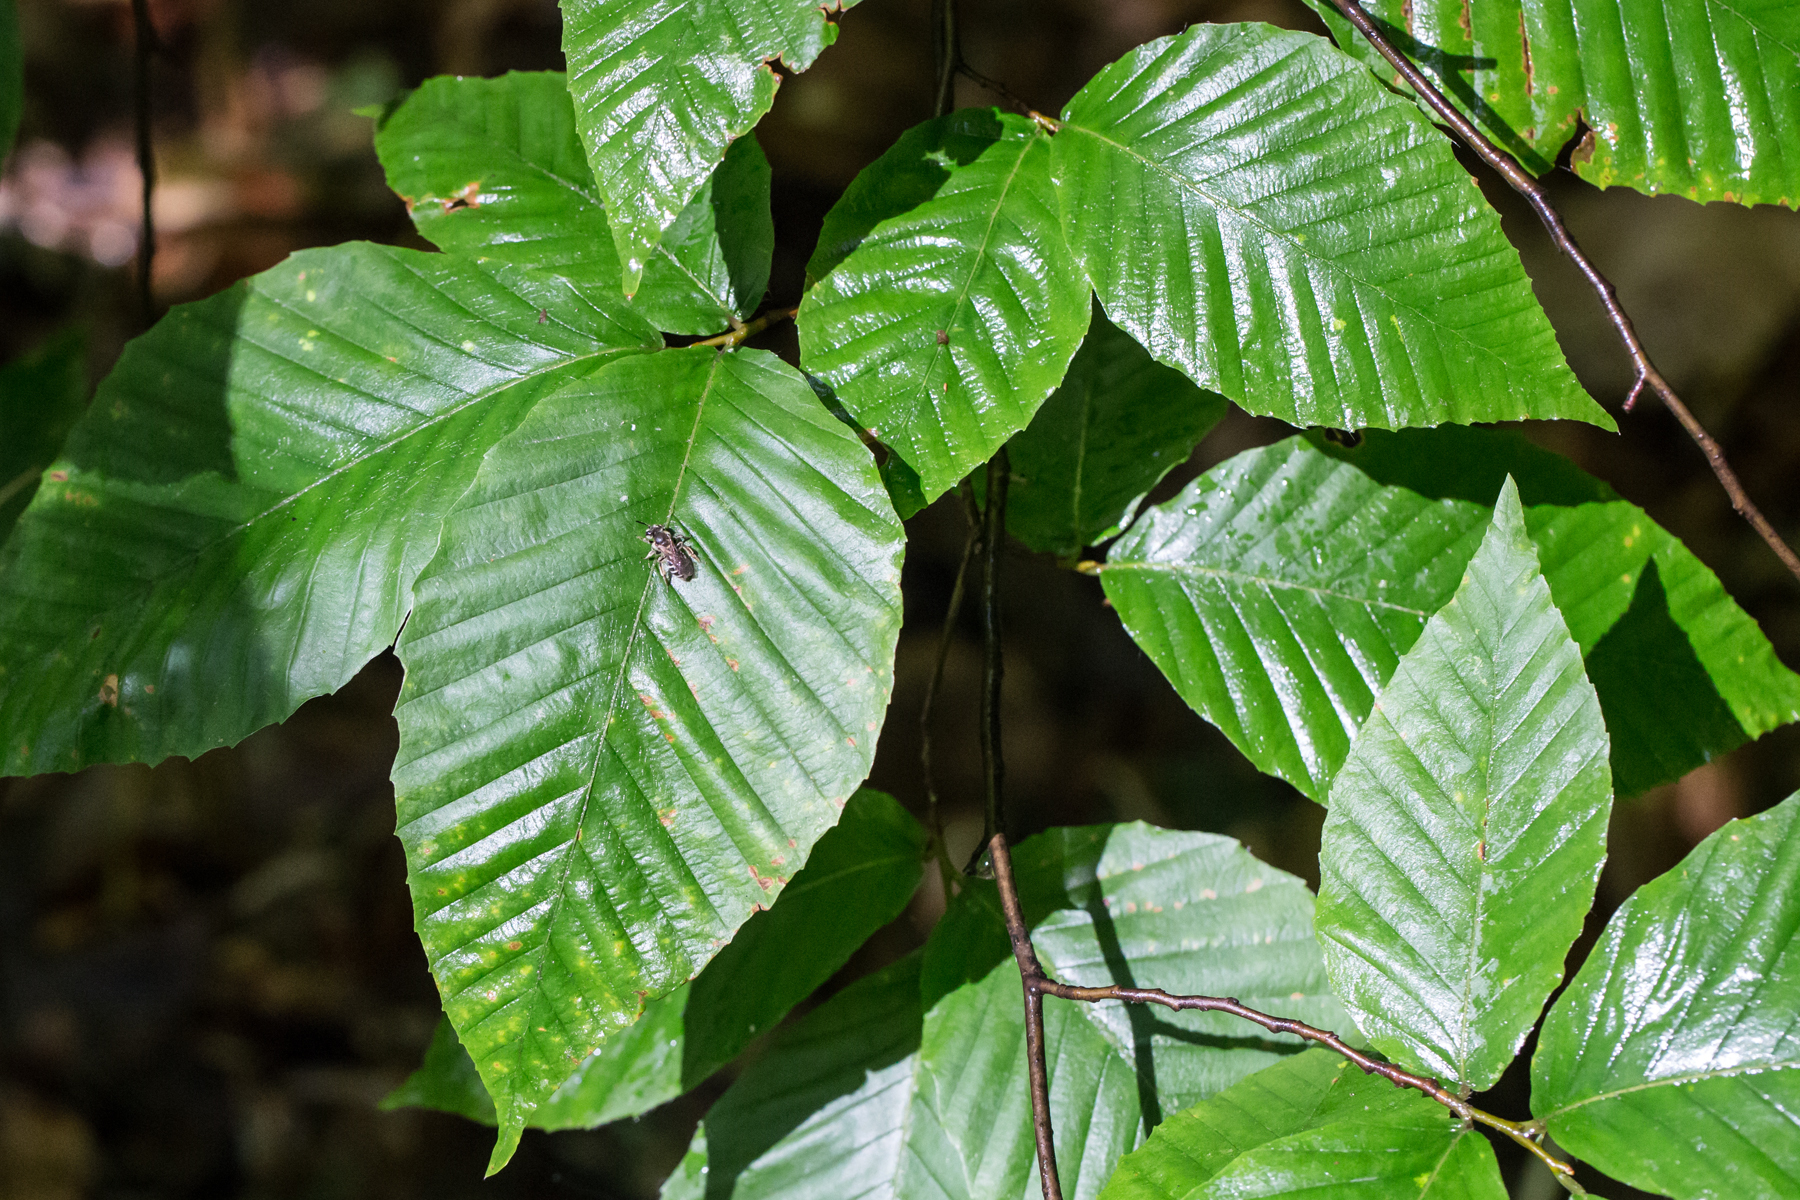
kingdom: Plantae
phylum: Tracheophyta
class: Magnoliopsida
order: Fagales
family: Fagaceae
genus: Fagus
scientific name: Fagus grandifolia
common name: American beech
